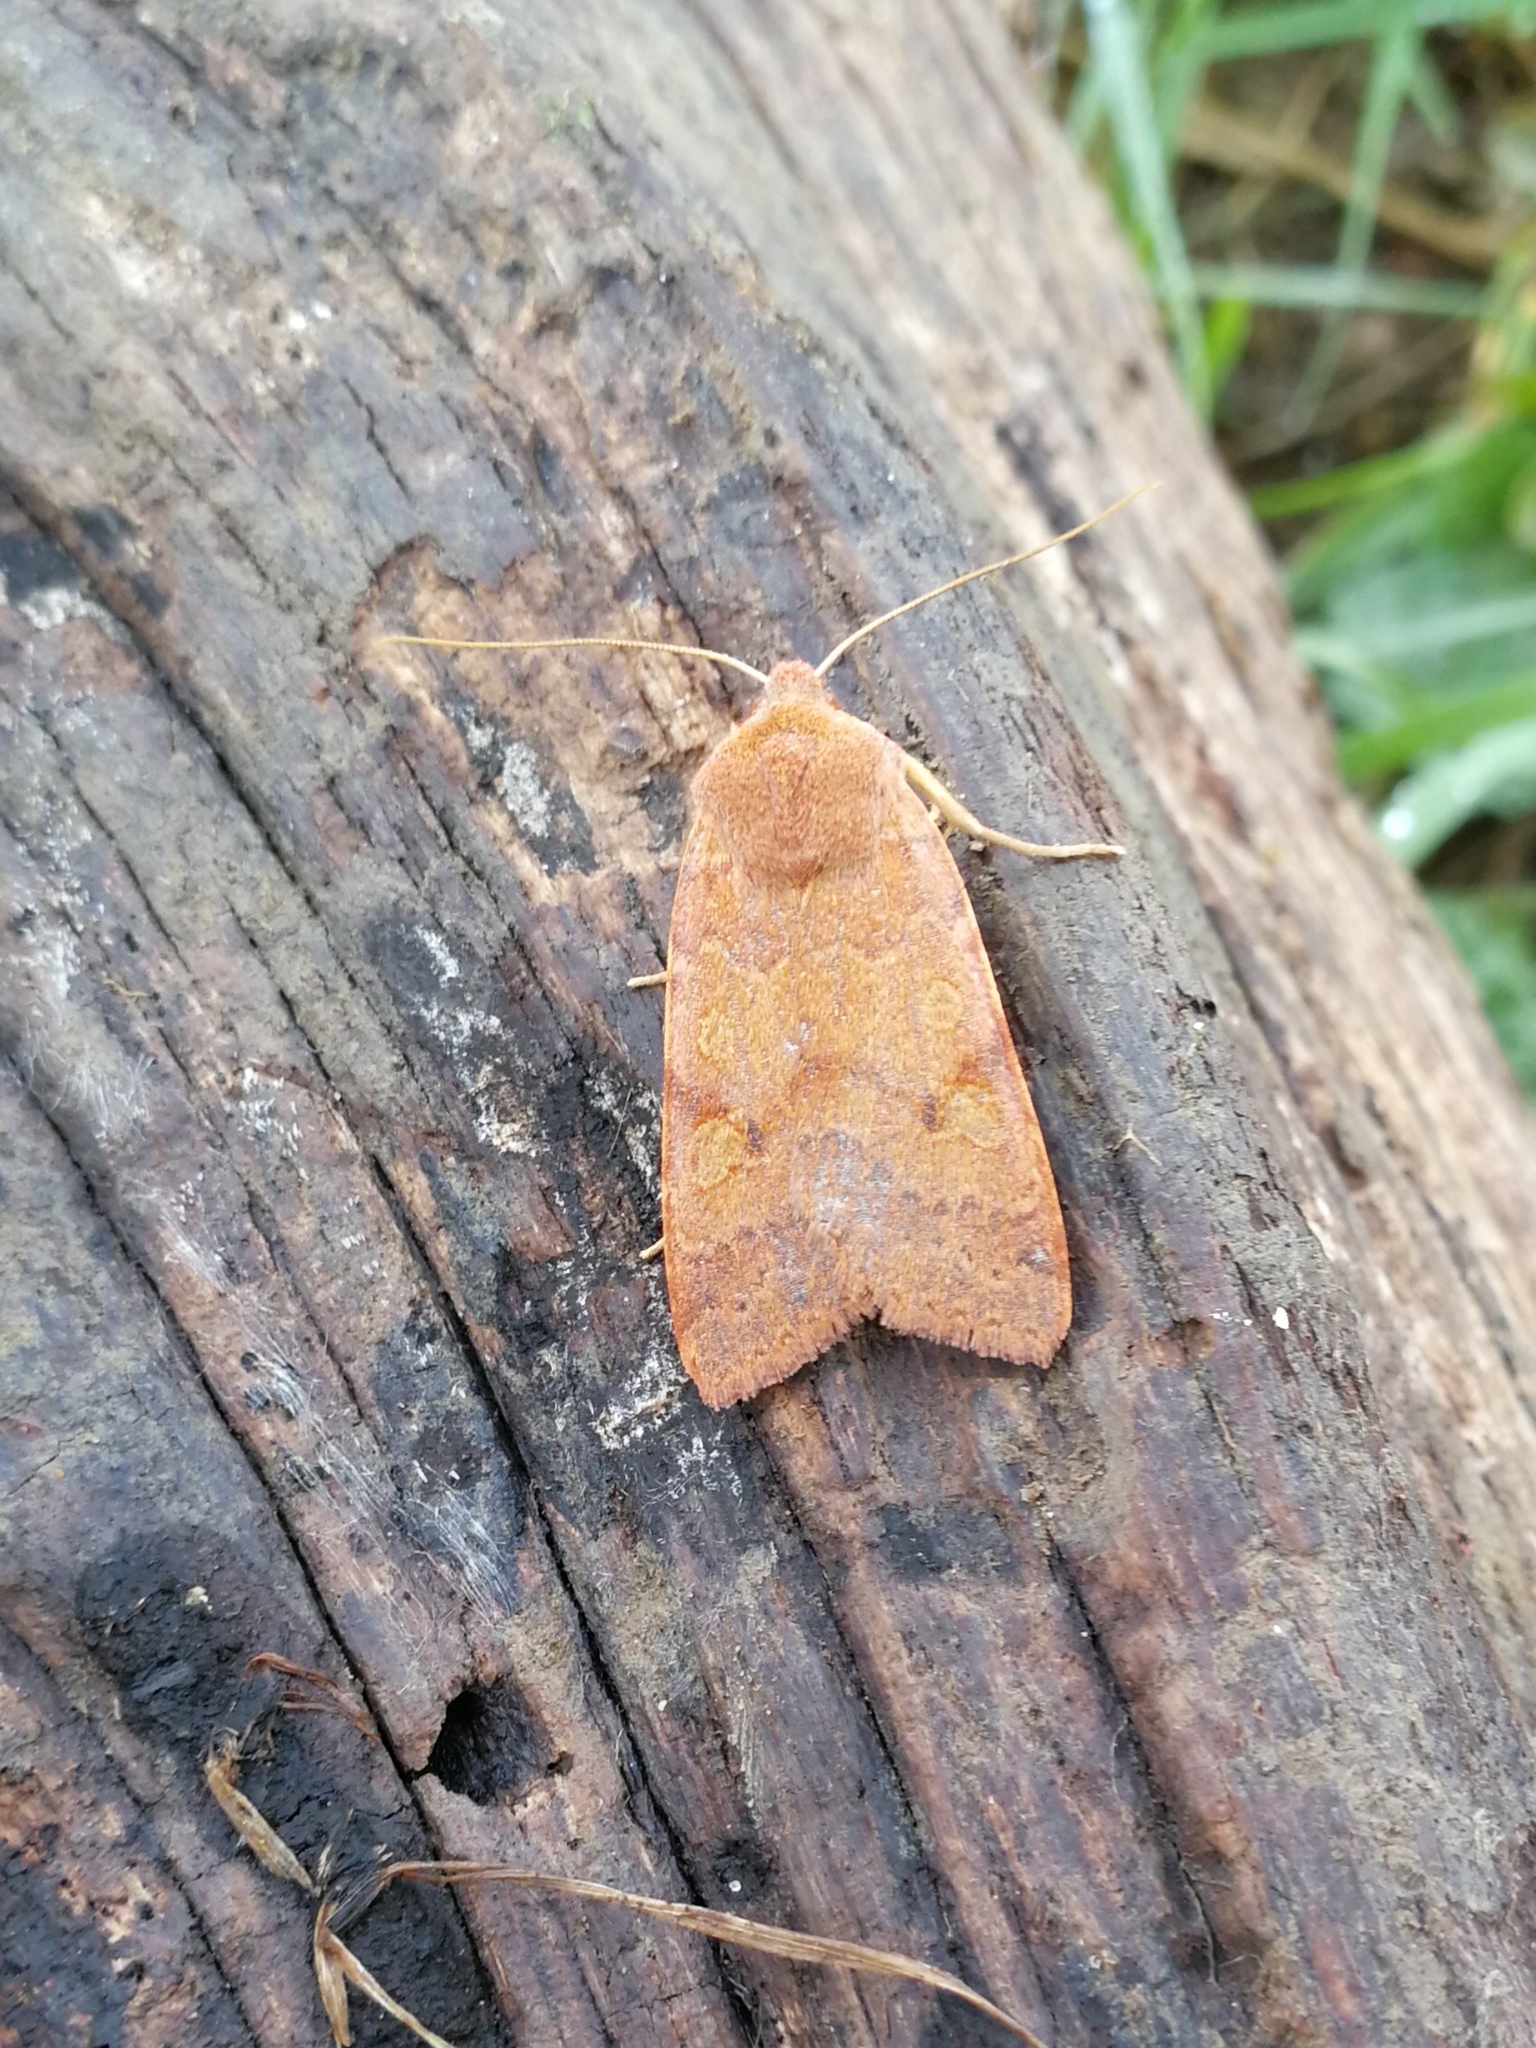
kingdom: Animalia
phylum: Arthropoda
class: Insecta
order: Lepidoptera
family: Noctuidae
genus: Agrochola
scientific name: Agrochola helvola
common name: Flounced chestnut
